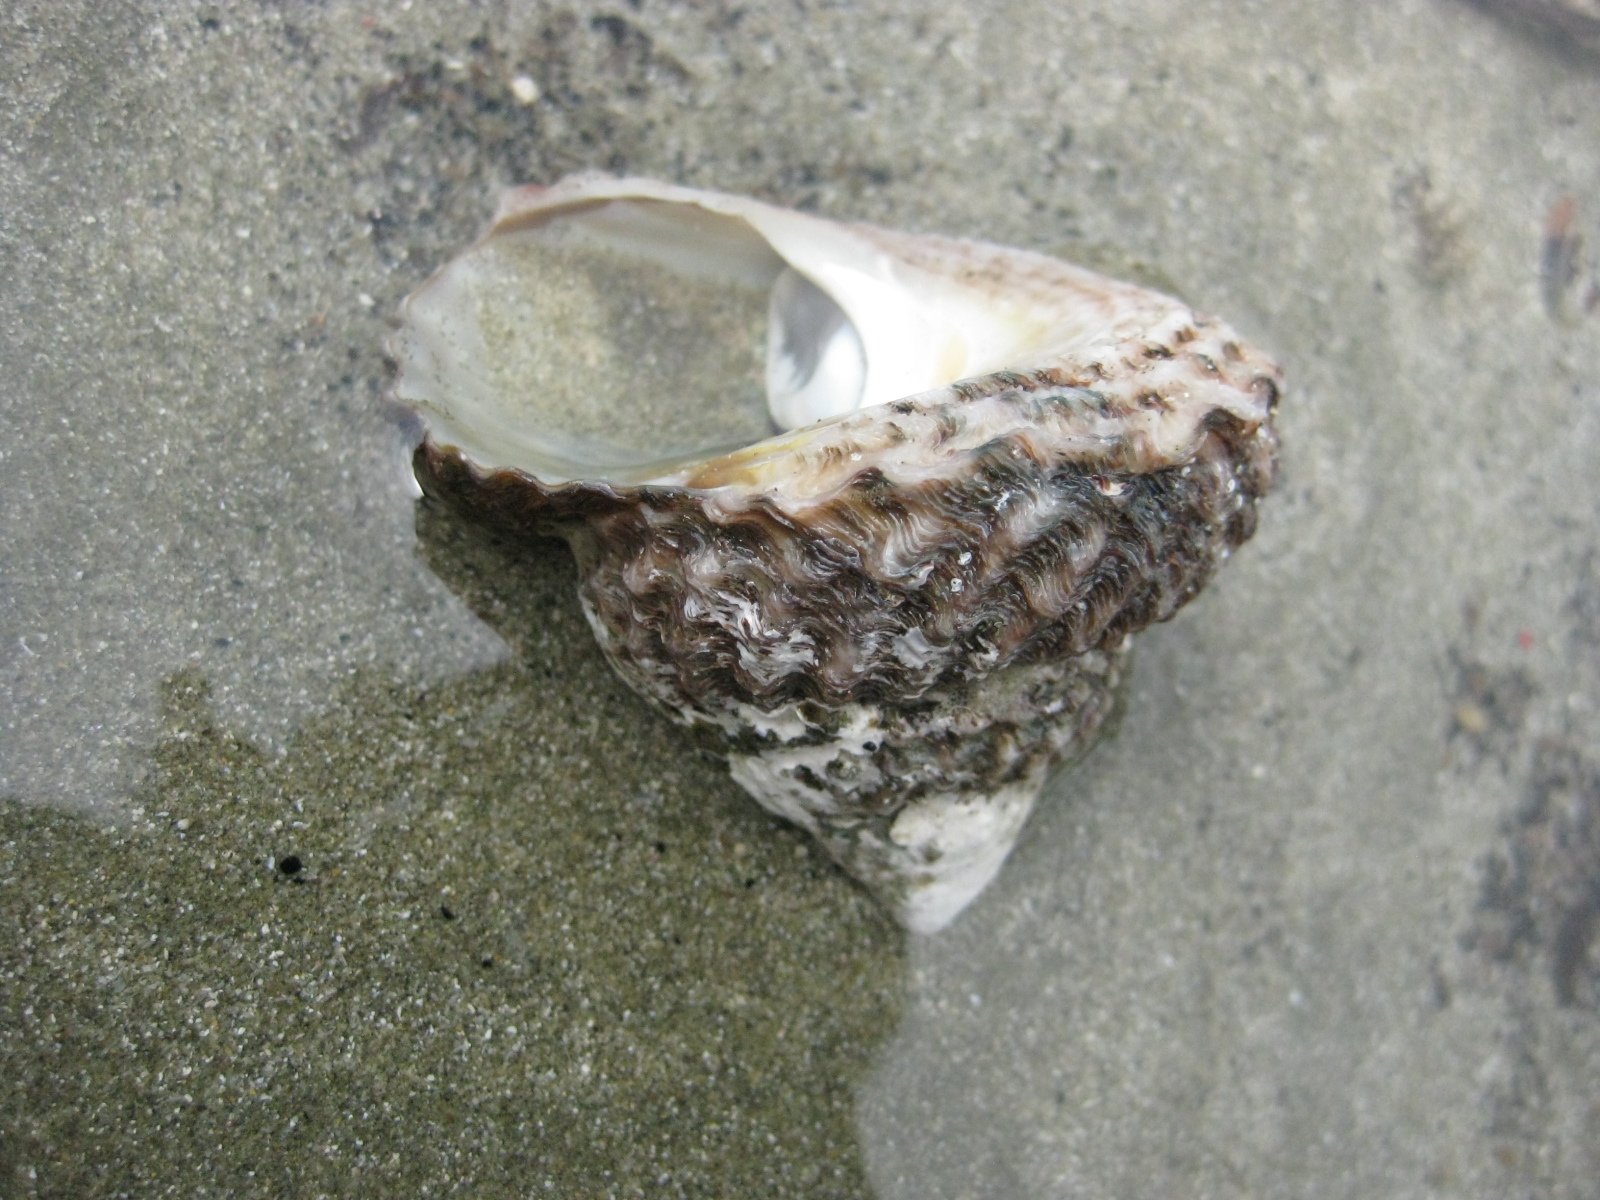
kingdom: Animalia
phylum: Mollusca
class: Gastropoda
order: Trochida
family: Turbinidae
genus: Cookia
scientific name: Cookia sulcata
